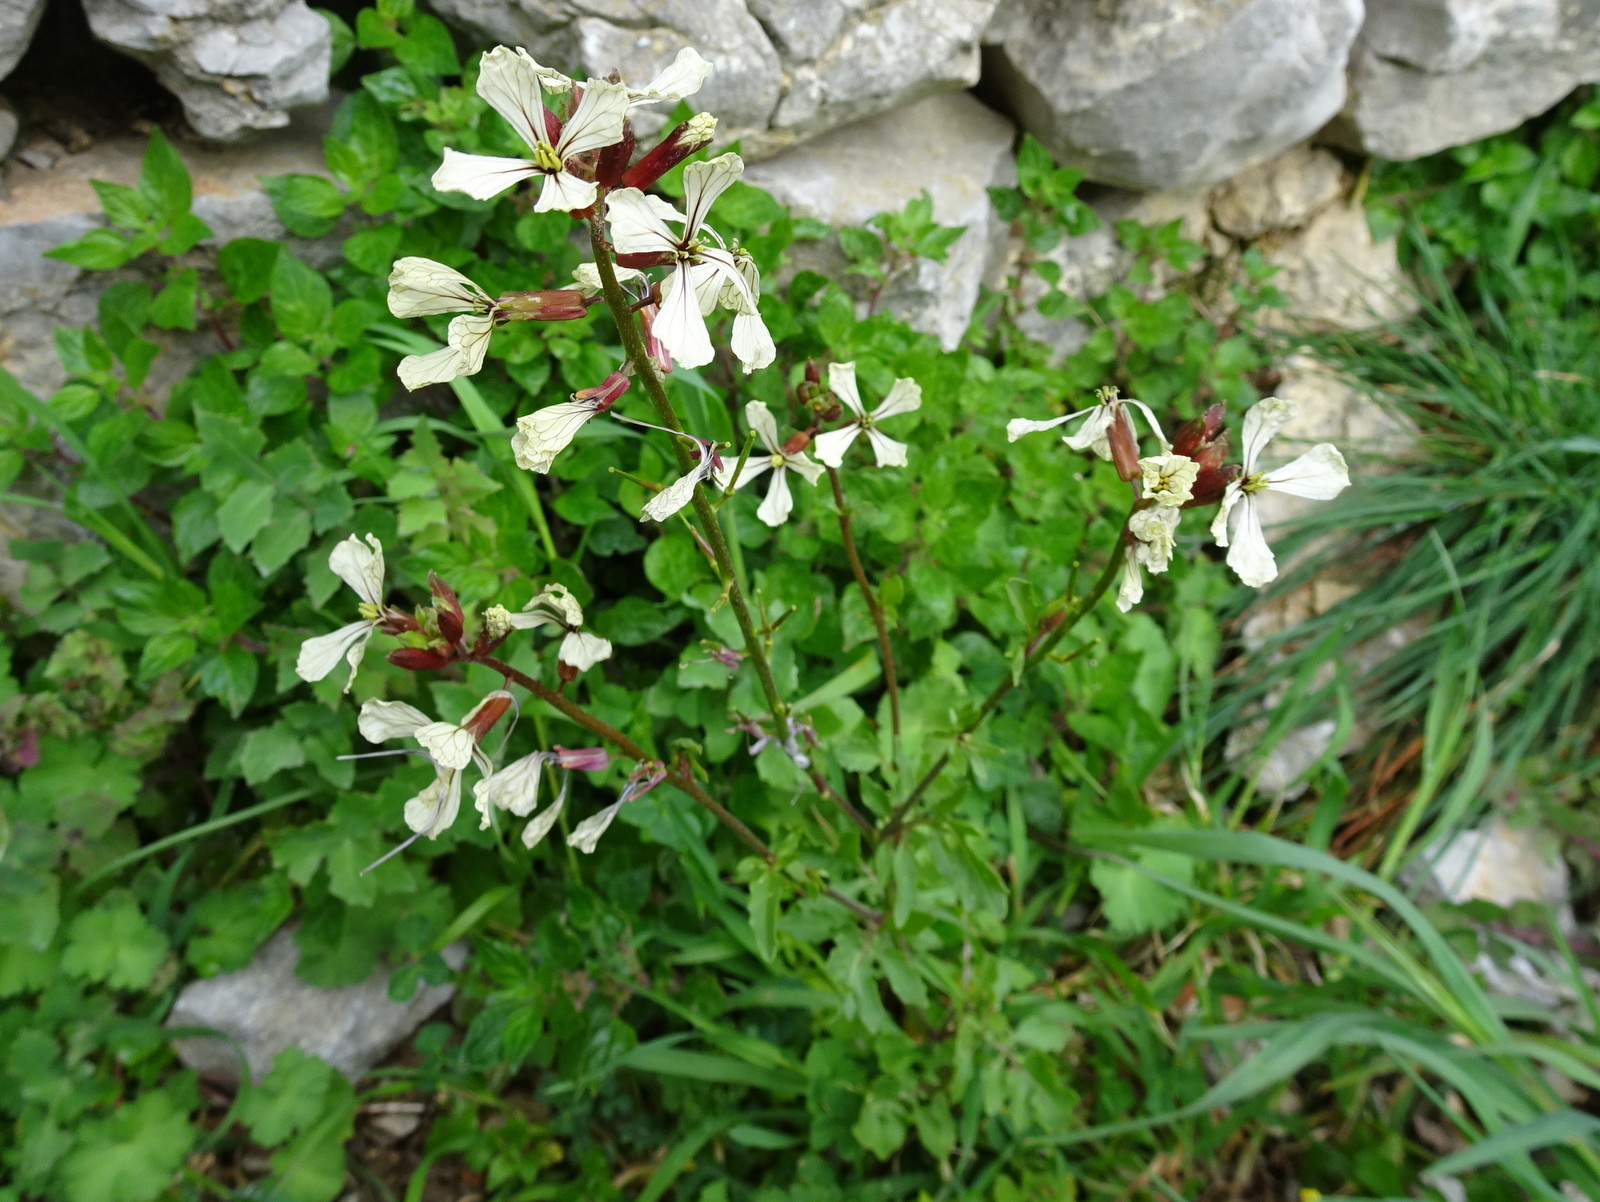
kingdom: Plantae
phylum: Tracheophyta
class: Magnoliopsida
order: Brassicales
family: Brassicaceae
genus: Eruca
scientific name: Eruca vesicaria
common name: Garden rocket
